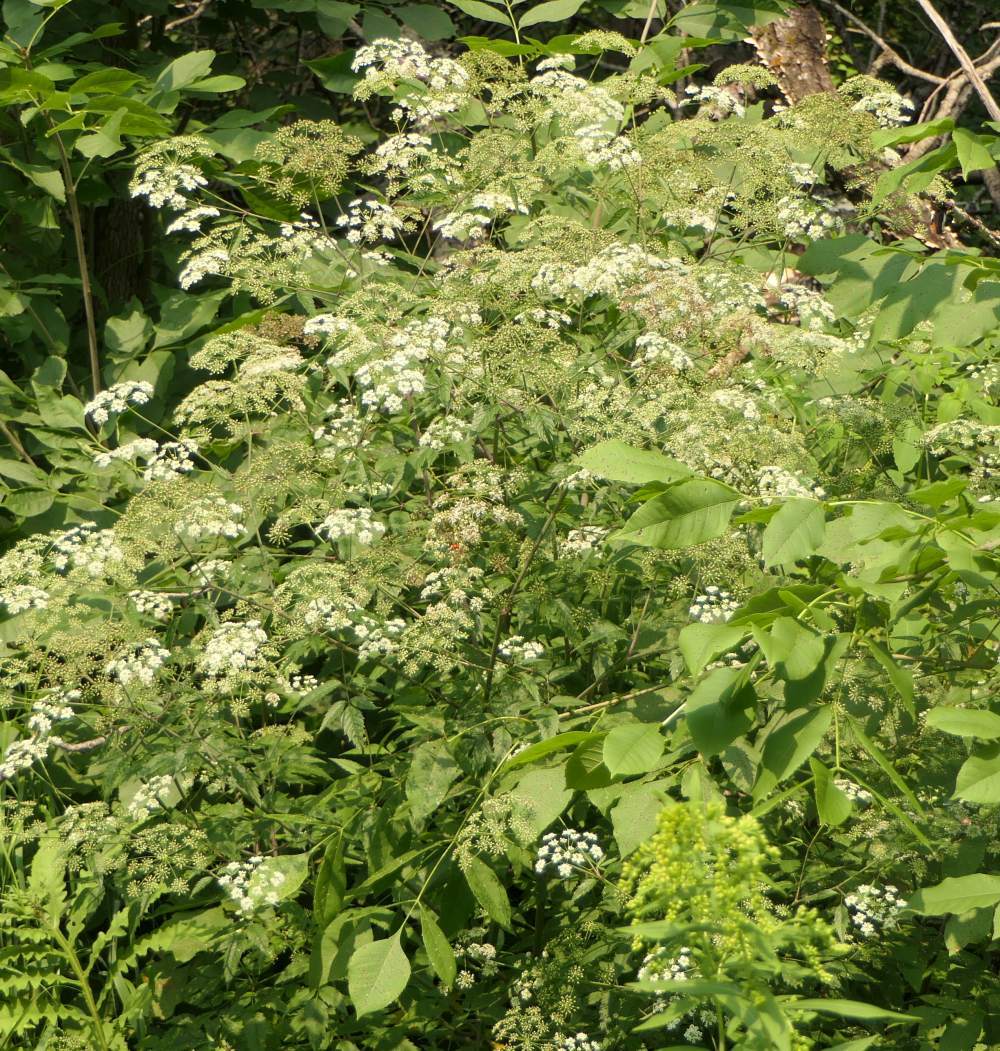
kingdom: Plantae
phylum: Tracheophyta
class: Magnoliopsida
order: Apiales
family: Apiaceae
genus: Cicuta
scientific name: Cicuta maculata
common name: Spotted cowbane
